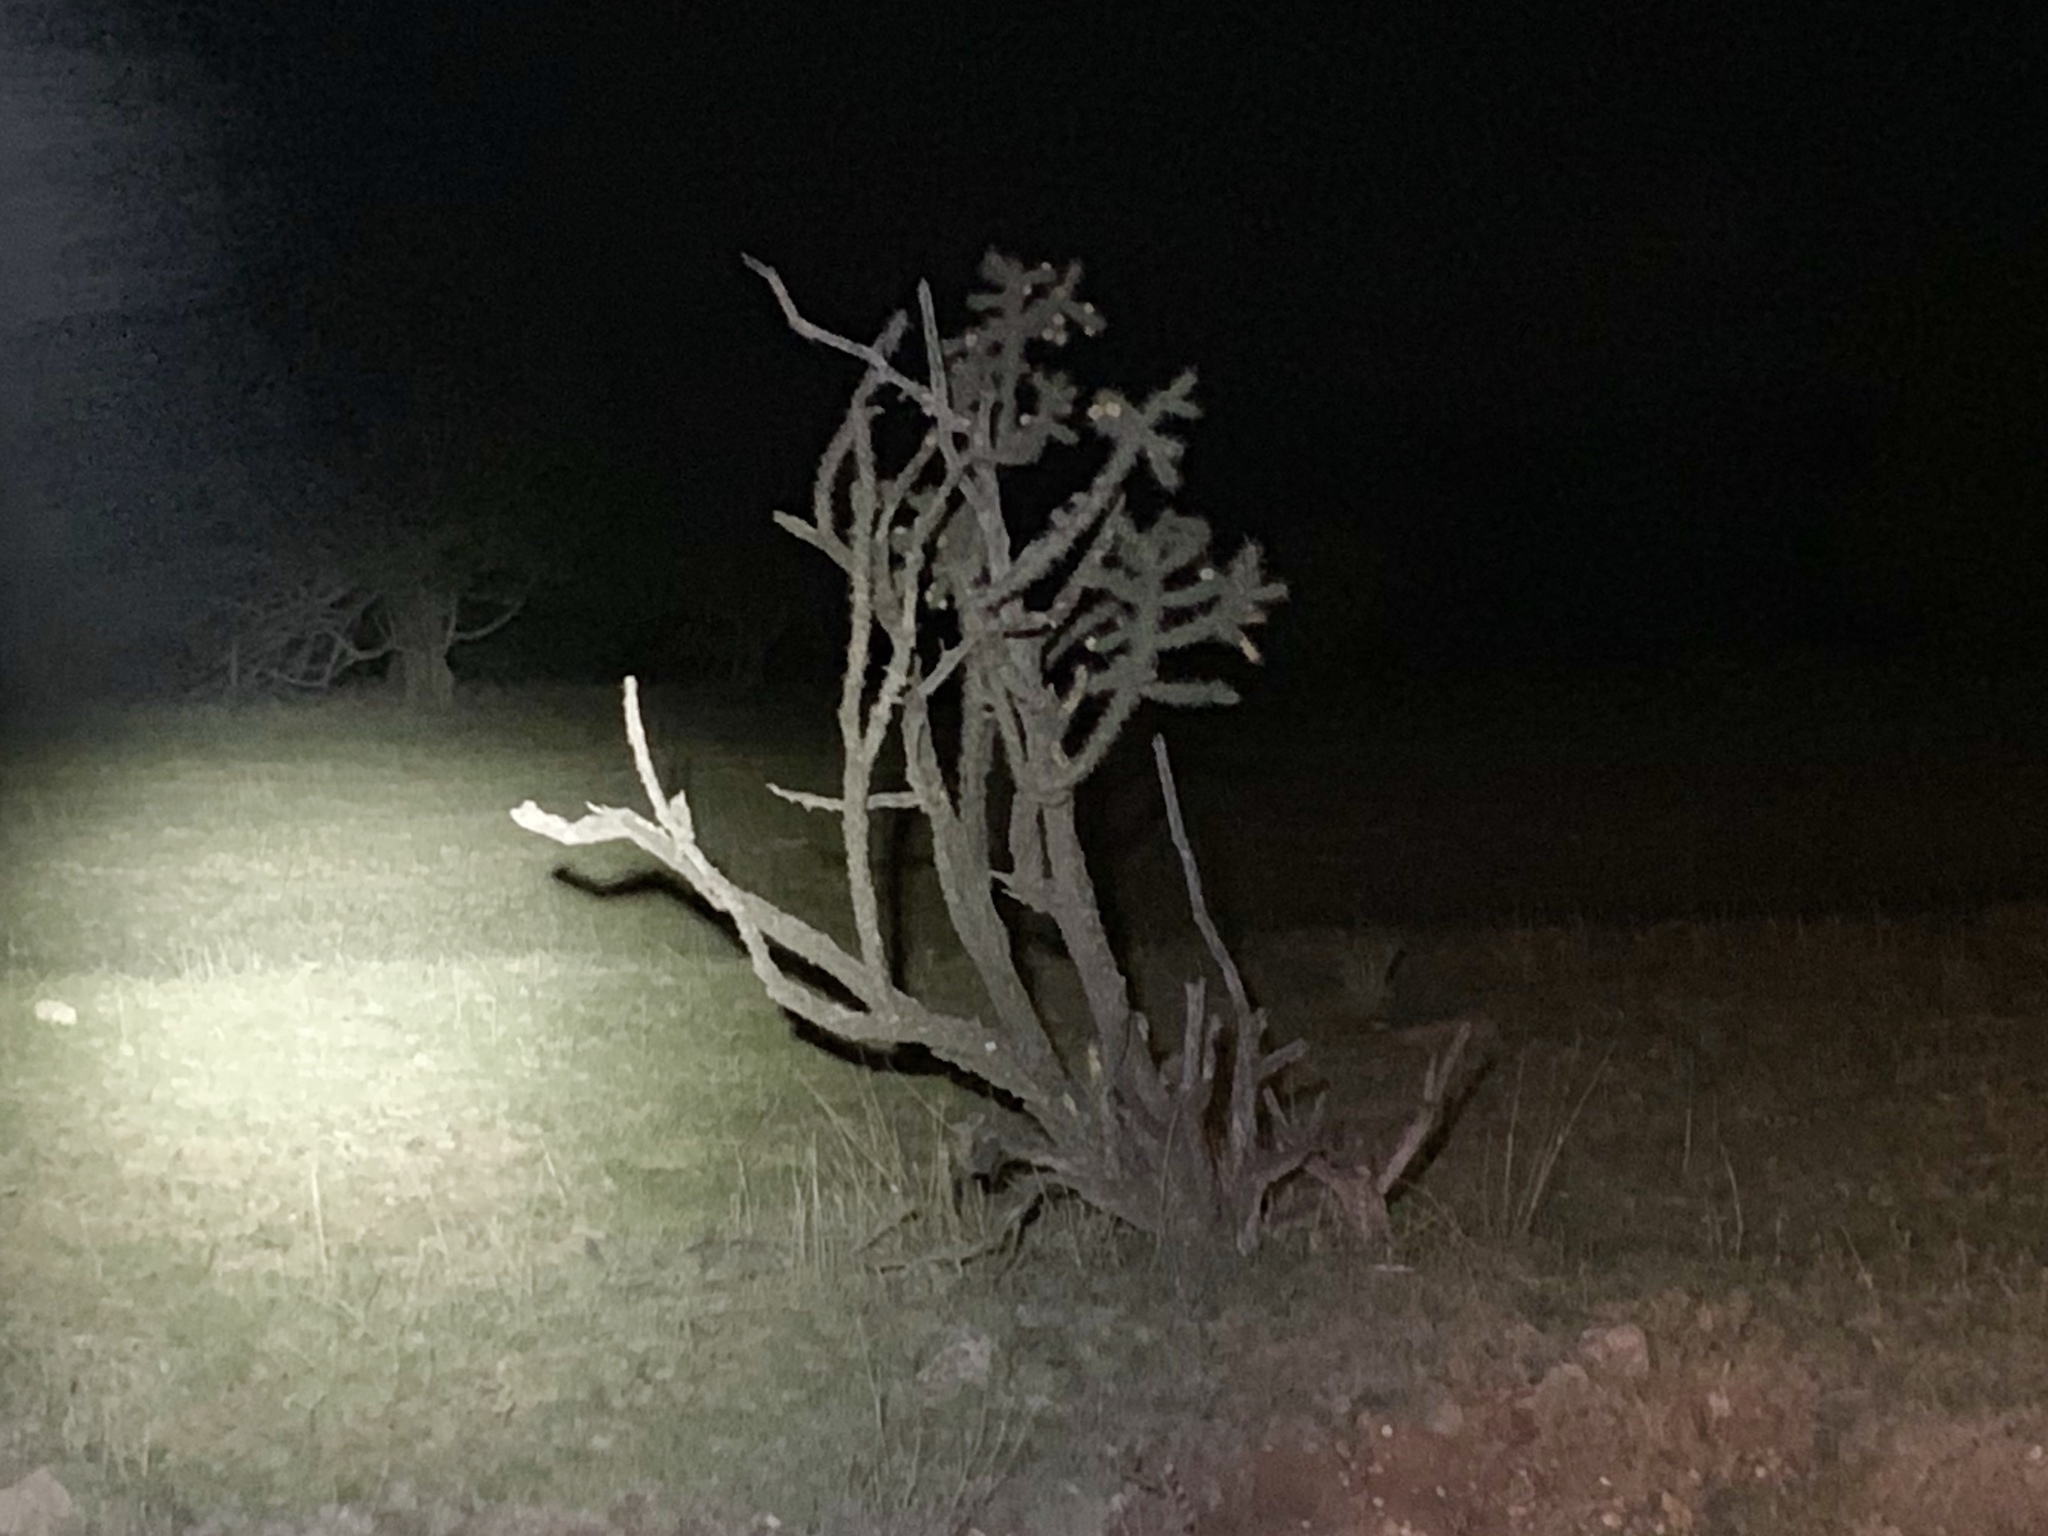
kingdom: Plantae
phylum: Tracheophyta
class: Magnoliopsida
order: Caryophyllales
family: Cactaceae
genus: Cylindropuntia
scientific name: Cylindropuntia imbricata
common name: Candelabrum cactus
